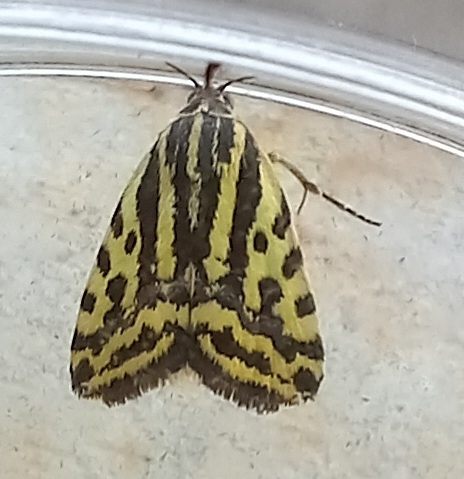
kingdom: Animalia
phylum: Arthropoda
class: Insecta
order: Lepidoptera
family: Noctuidae
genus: Acontia
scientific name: Acontia trabealis
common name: Spotted sulphur
